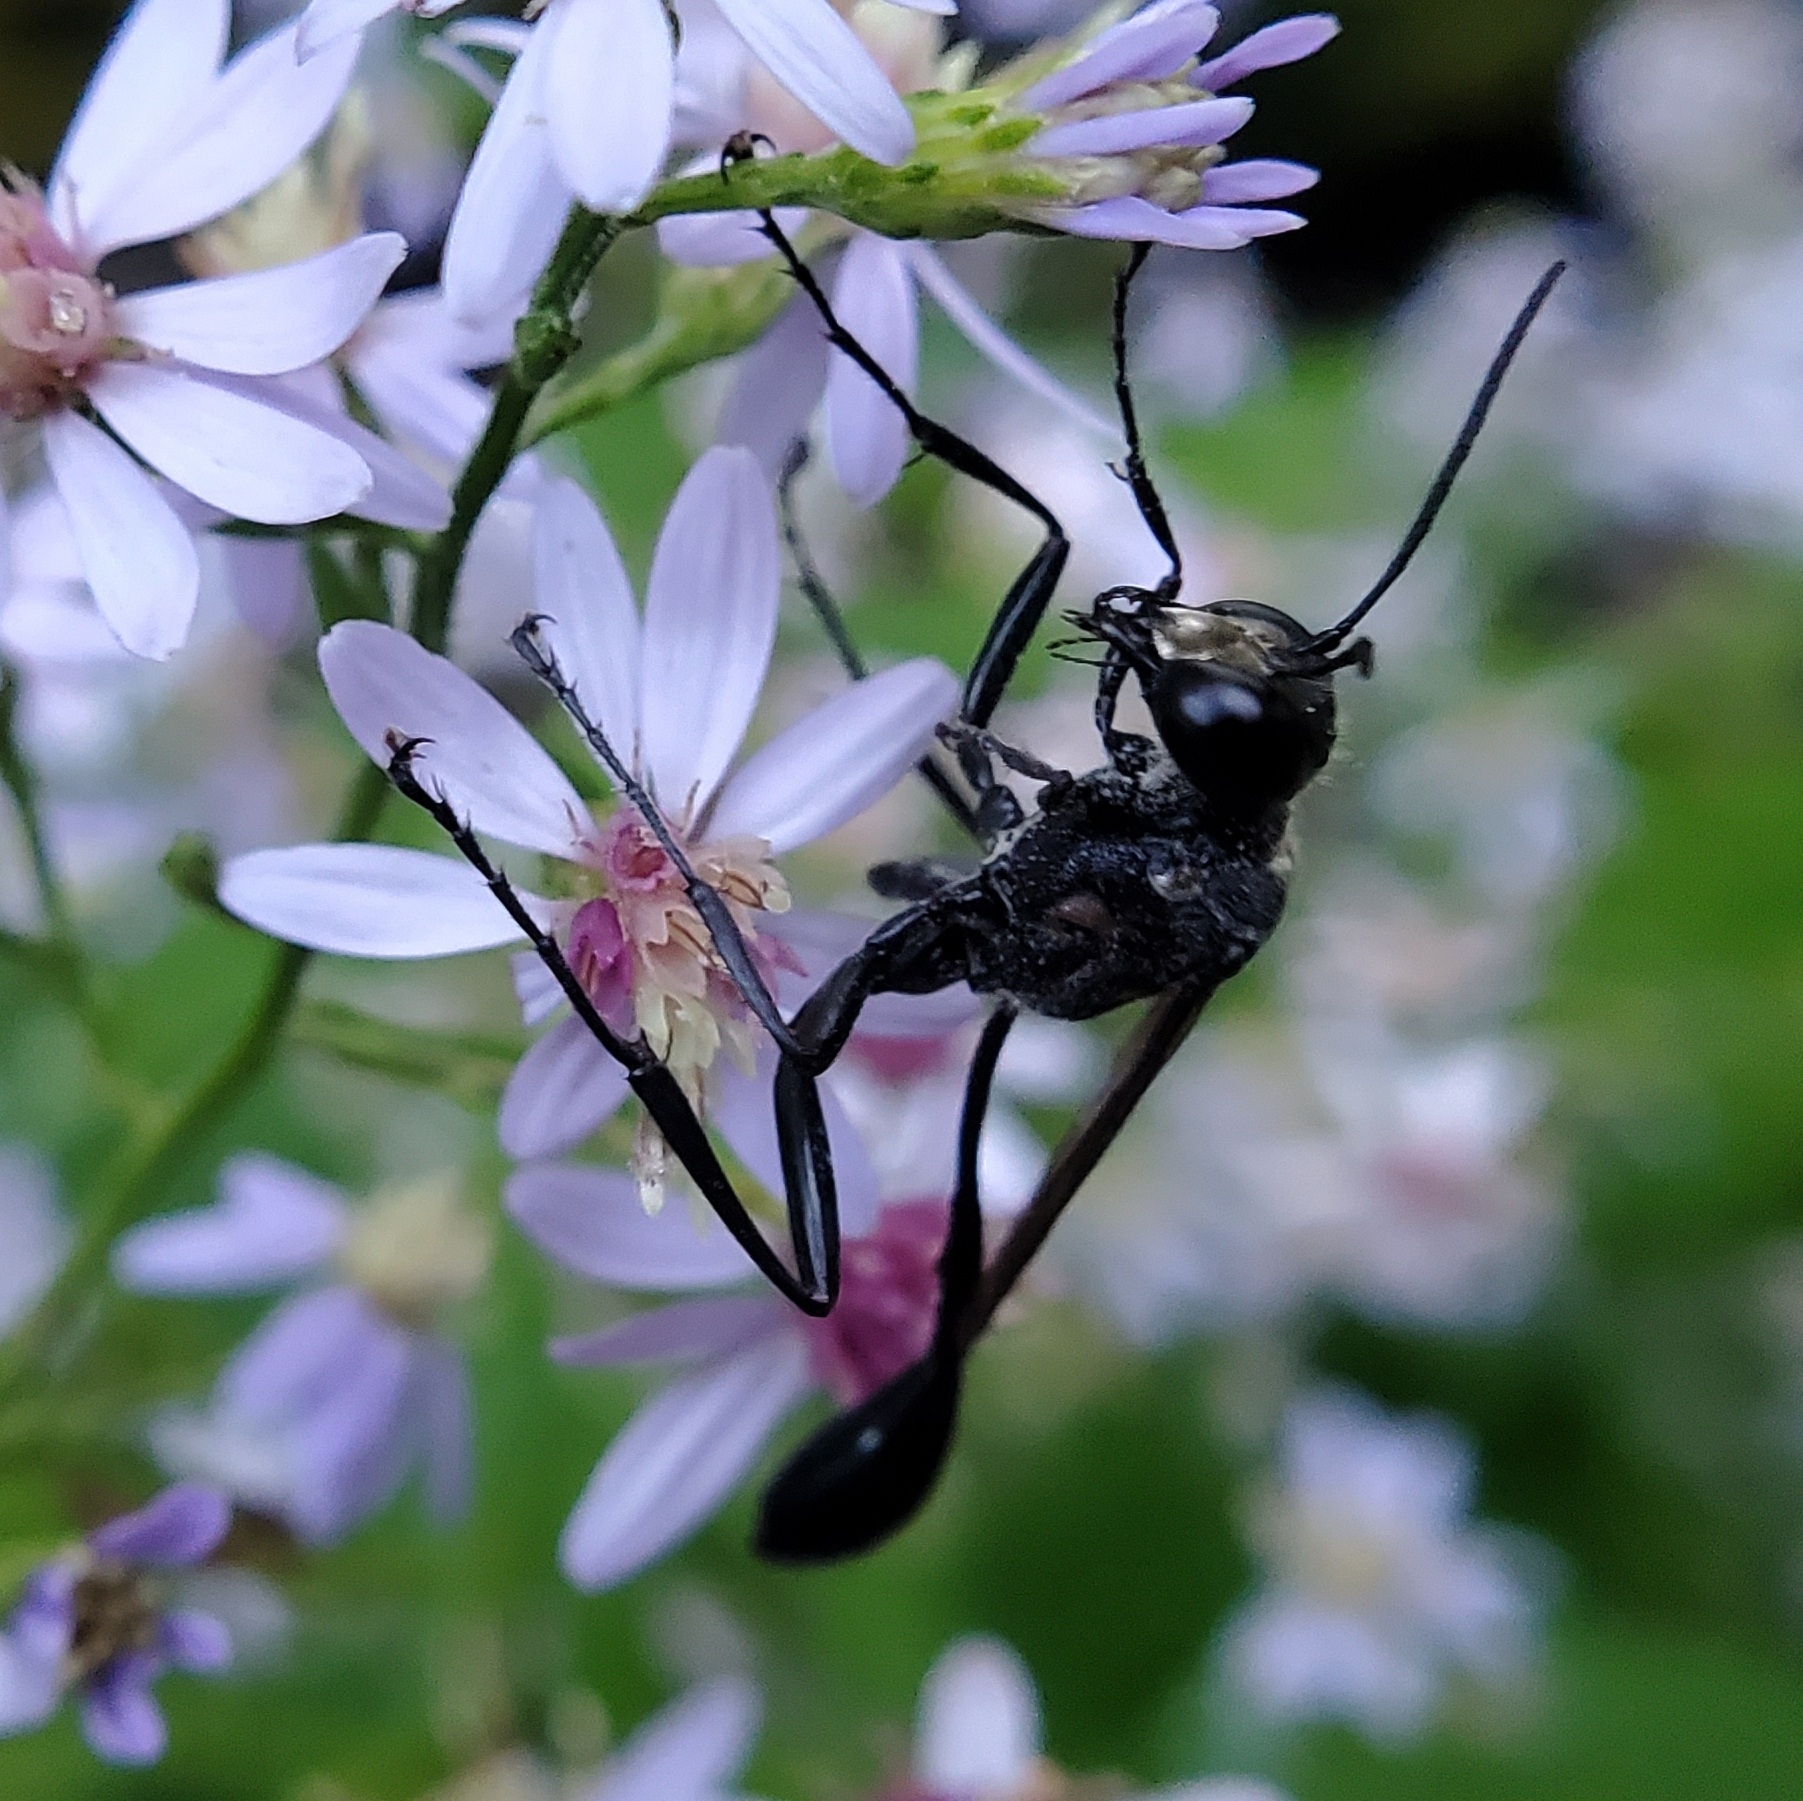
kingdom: Animalia
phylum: Arthropoda
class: Insecta
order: Hymenoptera
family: Sphecidae
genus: Eremnophila
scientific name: Eremnophila aureonotata
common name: Gold-marked thread-waisted wasp
